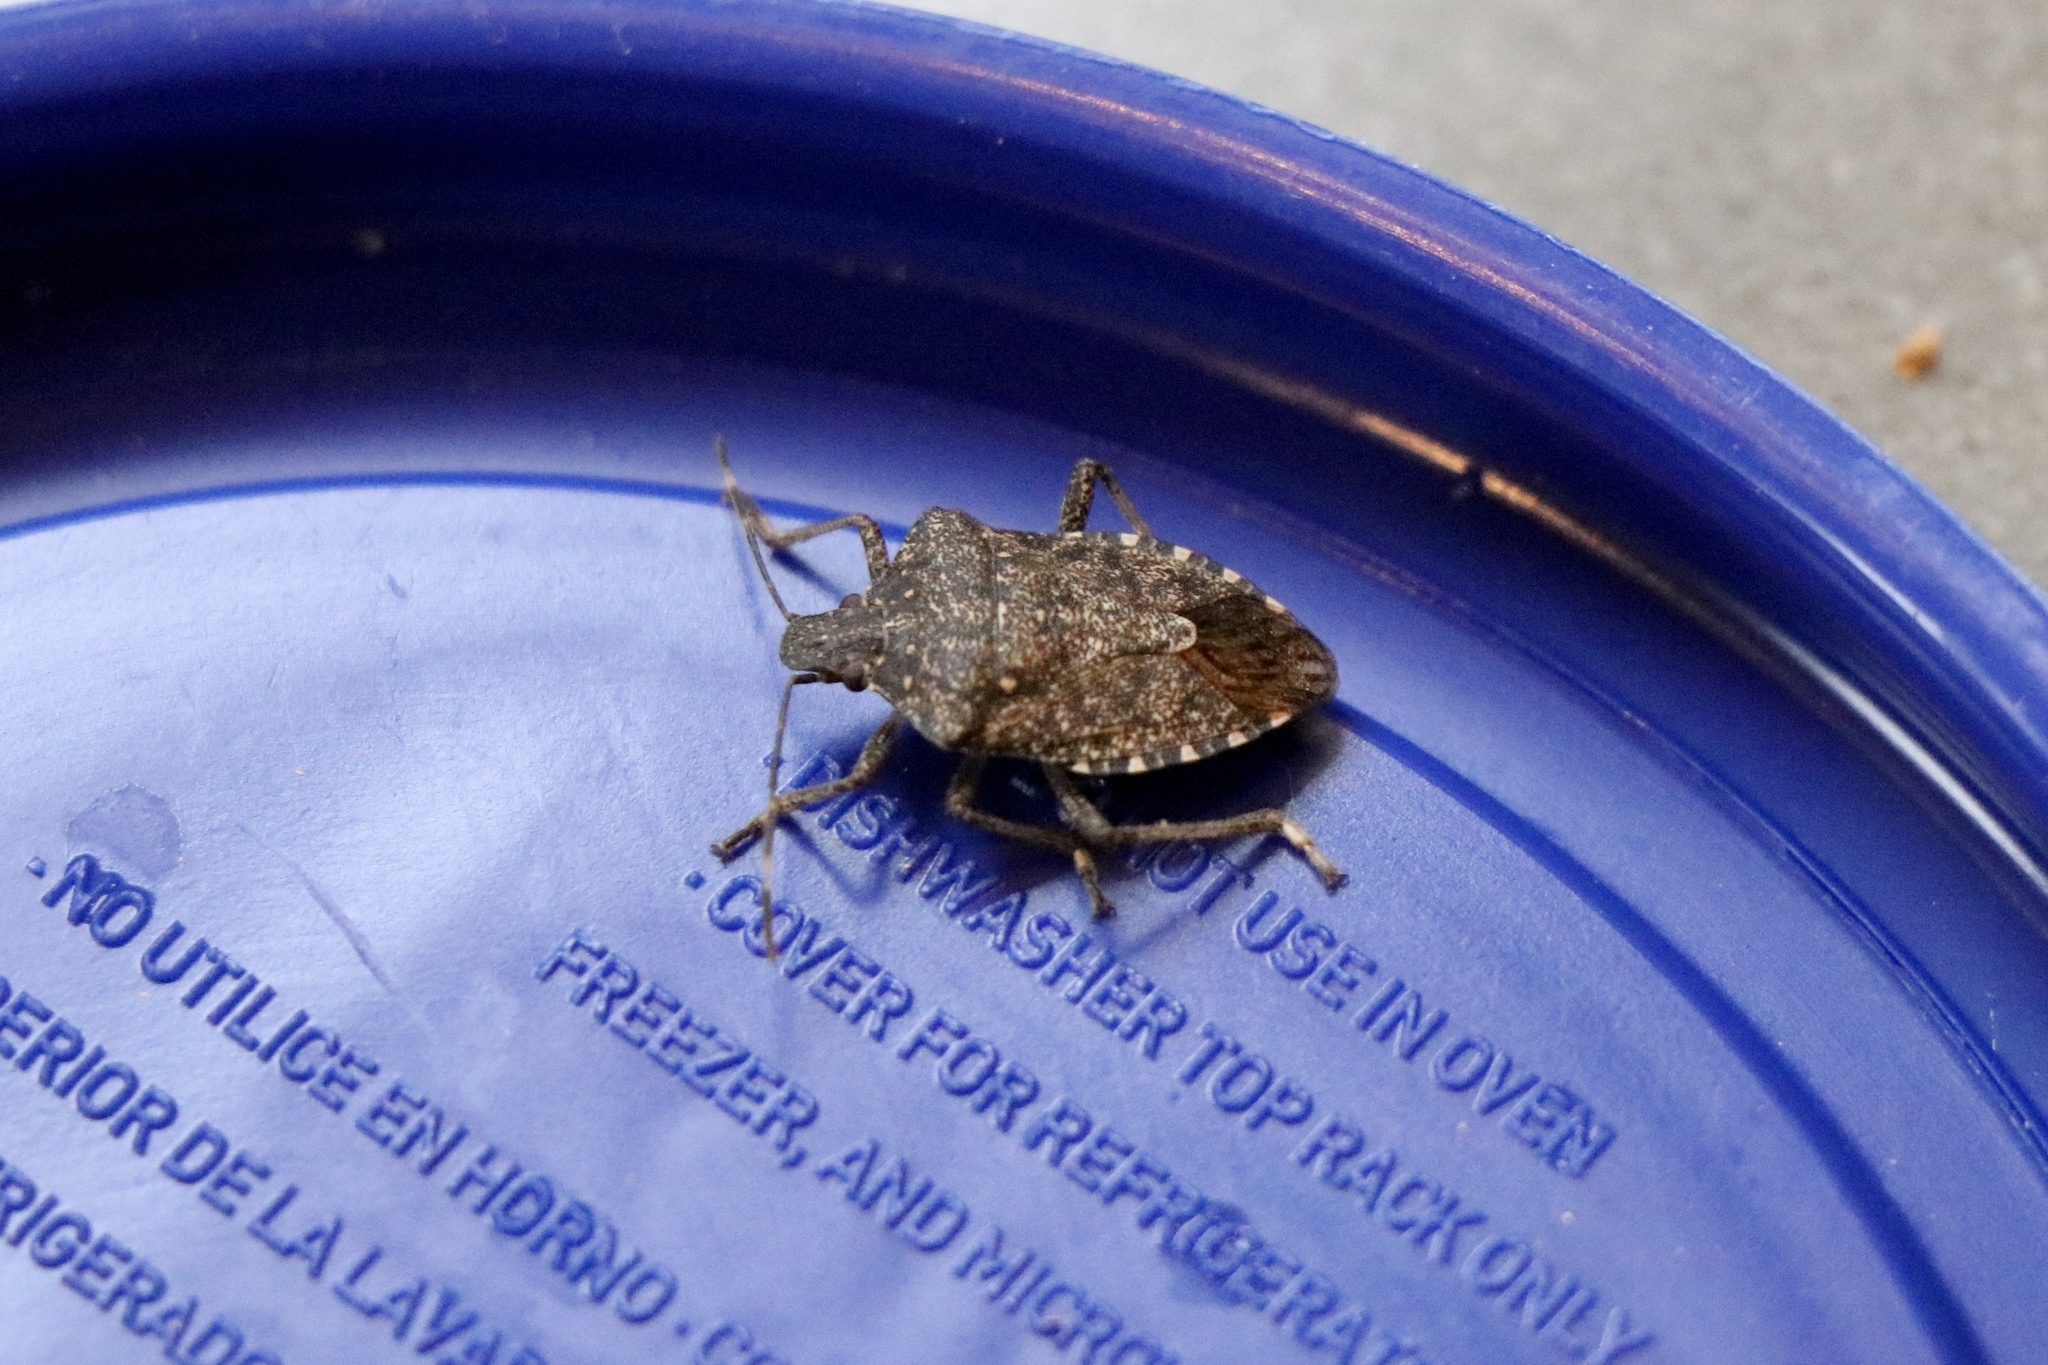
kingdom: Animalia
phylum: Arthropoda
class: Insecta
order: Hemiptera
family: Pentatomidae
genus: Halyomorpha
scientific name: Halyomorpha halys
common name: Brown marmorated stink bug
